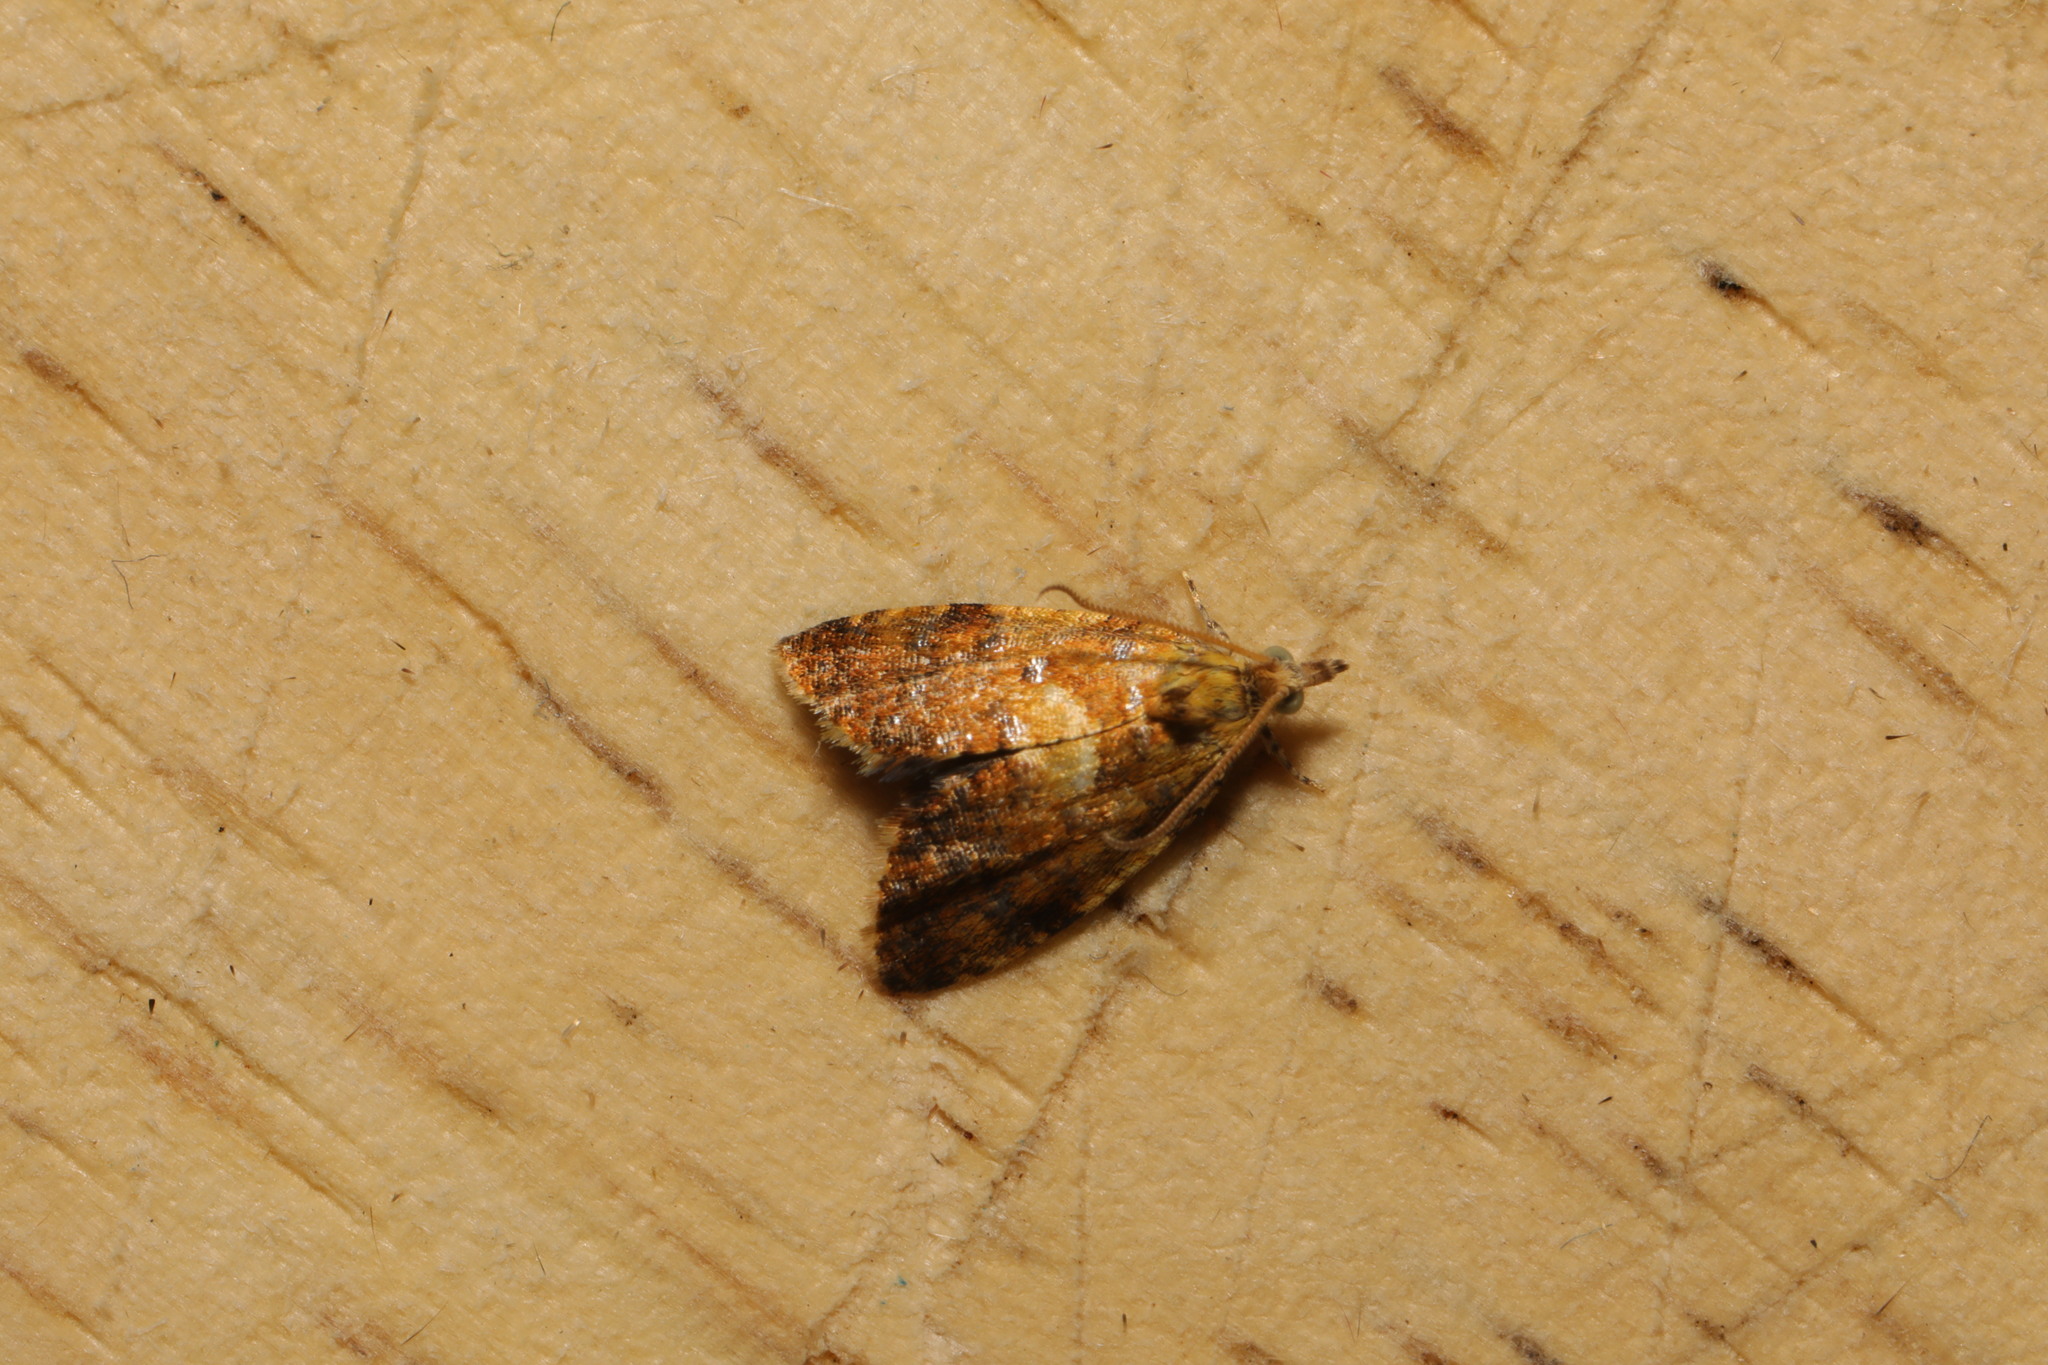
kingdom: Animalia
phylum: Arthropoda
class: Insecta
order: Lepidoptera
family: Tortricidae
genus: Pseudargyrotoza
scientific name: Pseudargyrotoza conwagana
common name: Yellow-spot twist
